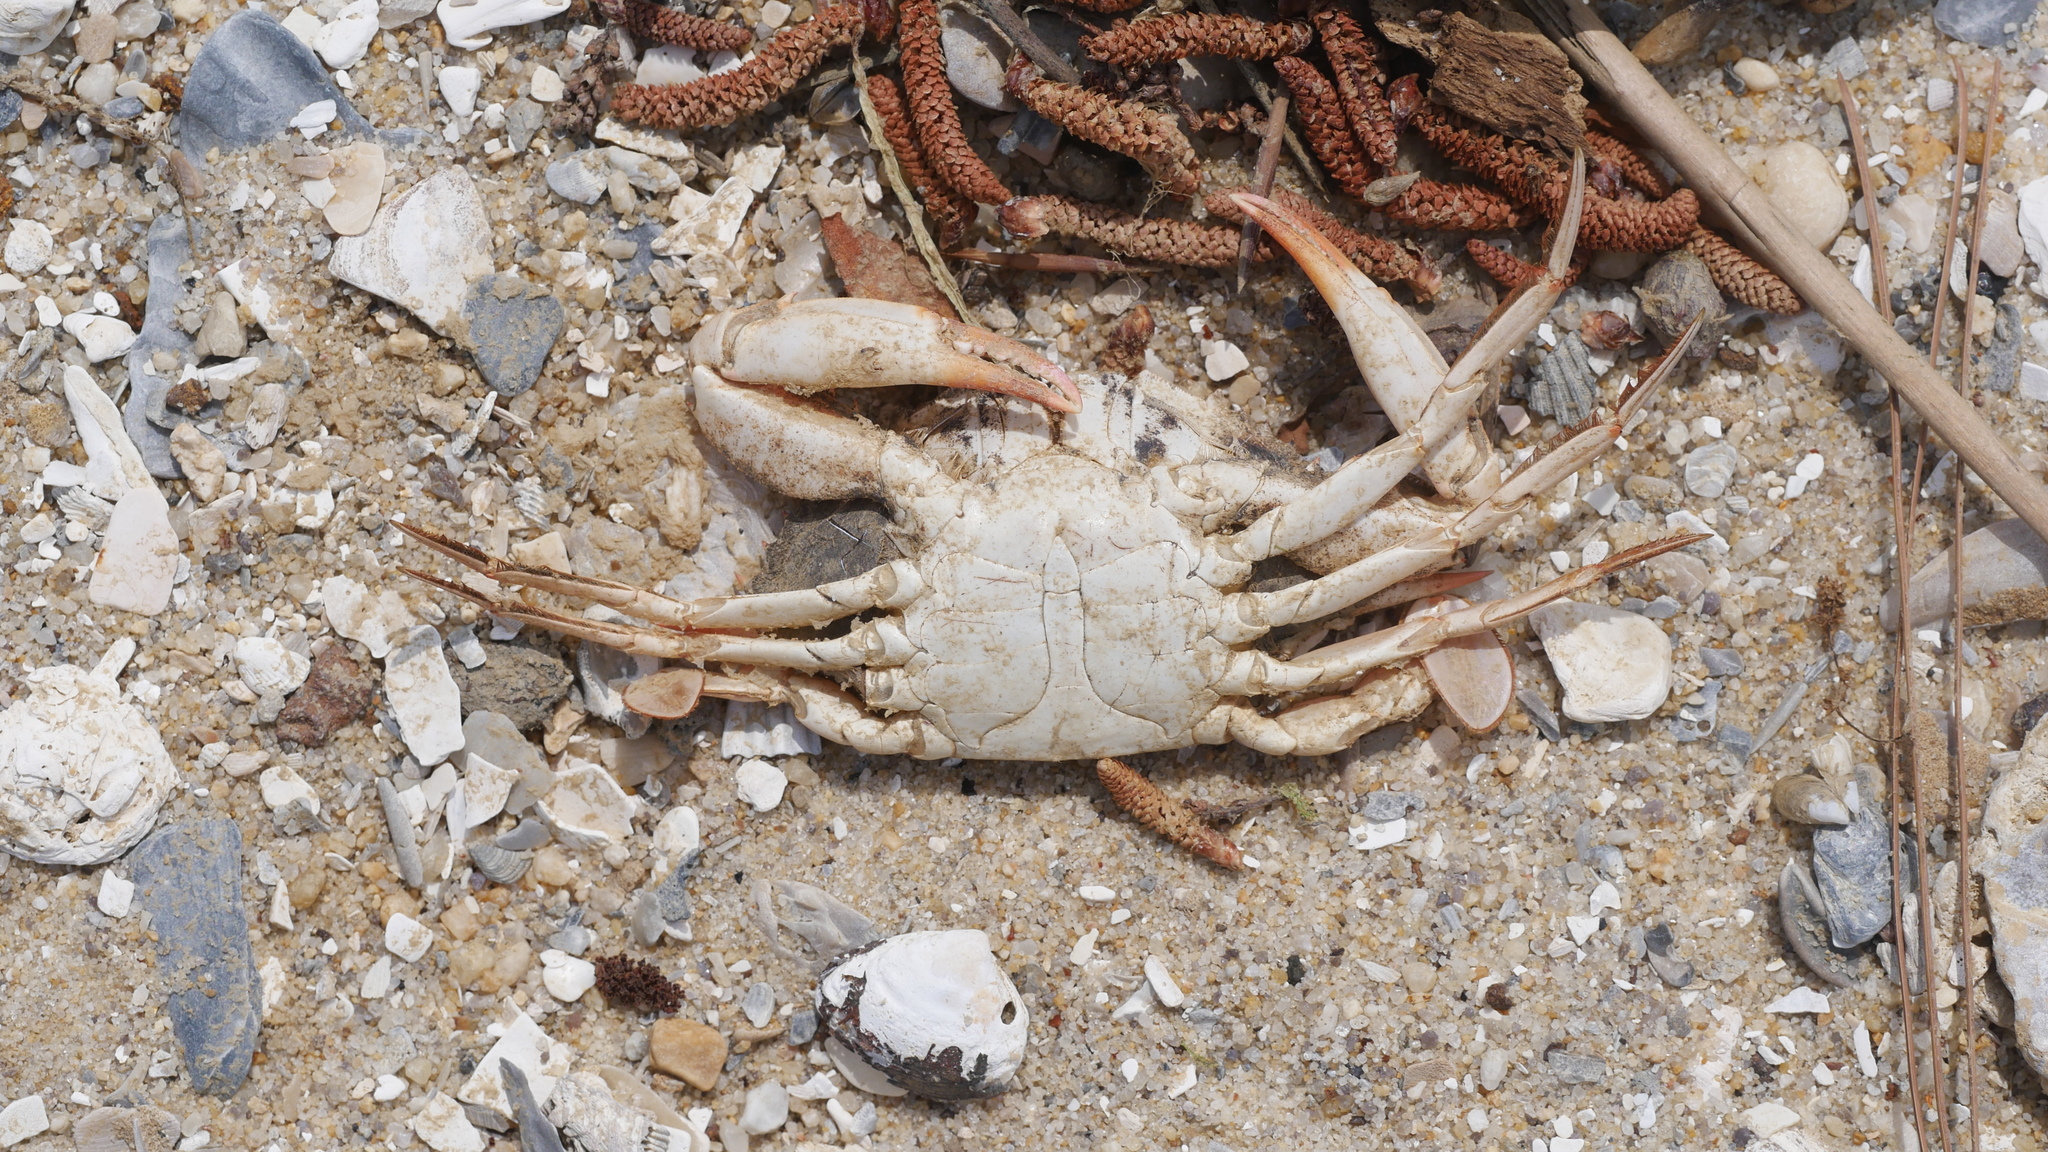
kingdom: Animalia
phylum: Arthropoda
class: Malacostraca
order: Decapoda
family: Portunidae
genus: Callinectes
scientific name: Callinectes sapidus
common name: Blue crab
